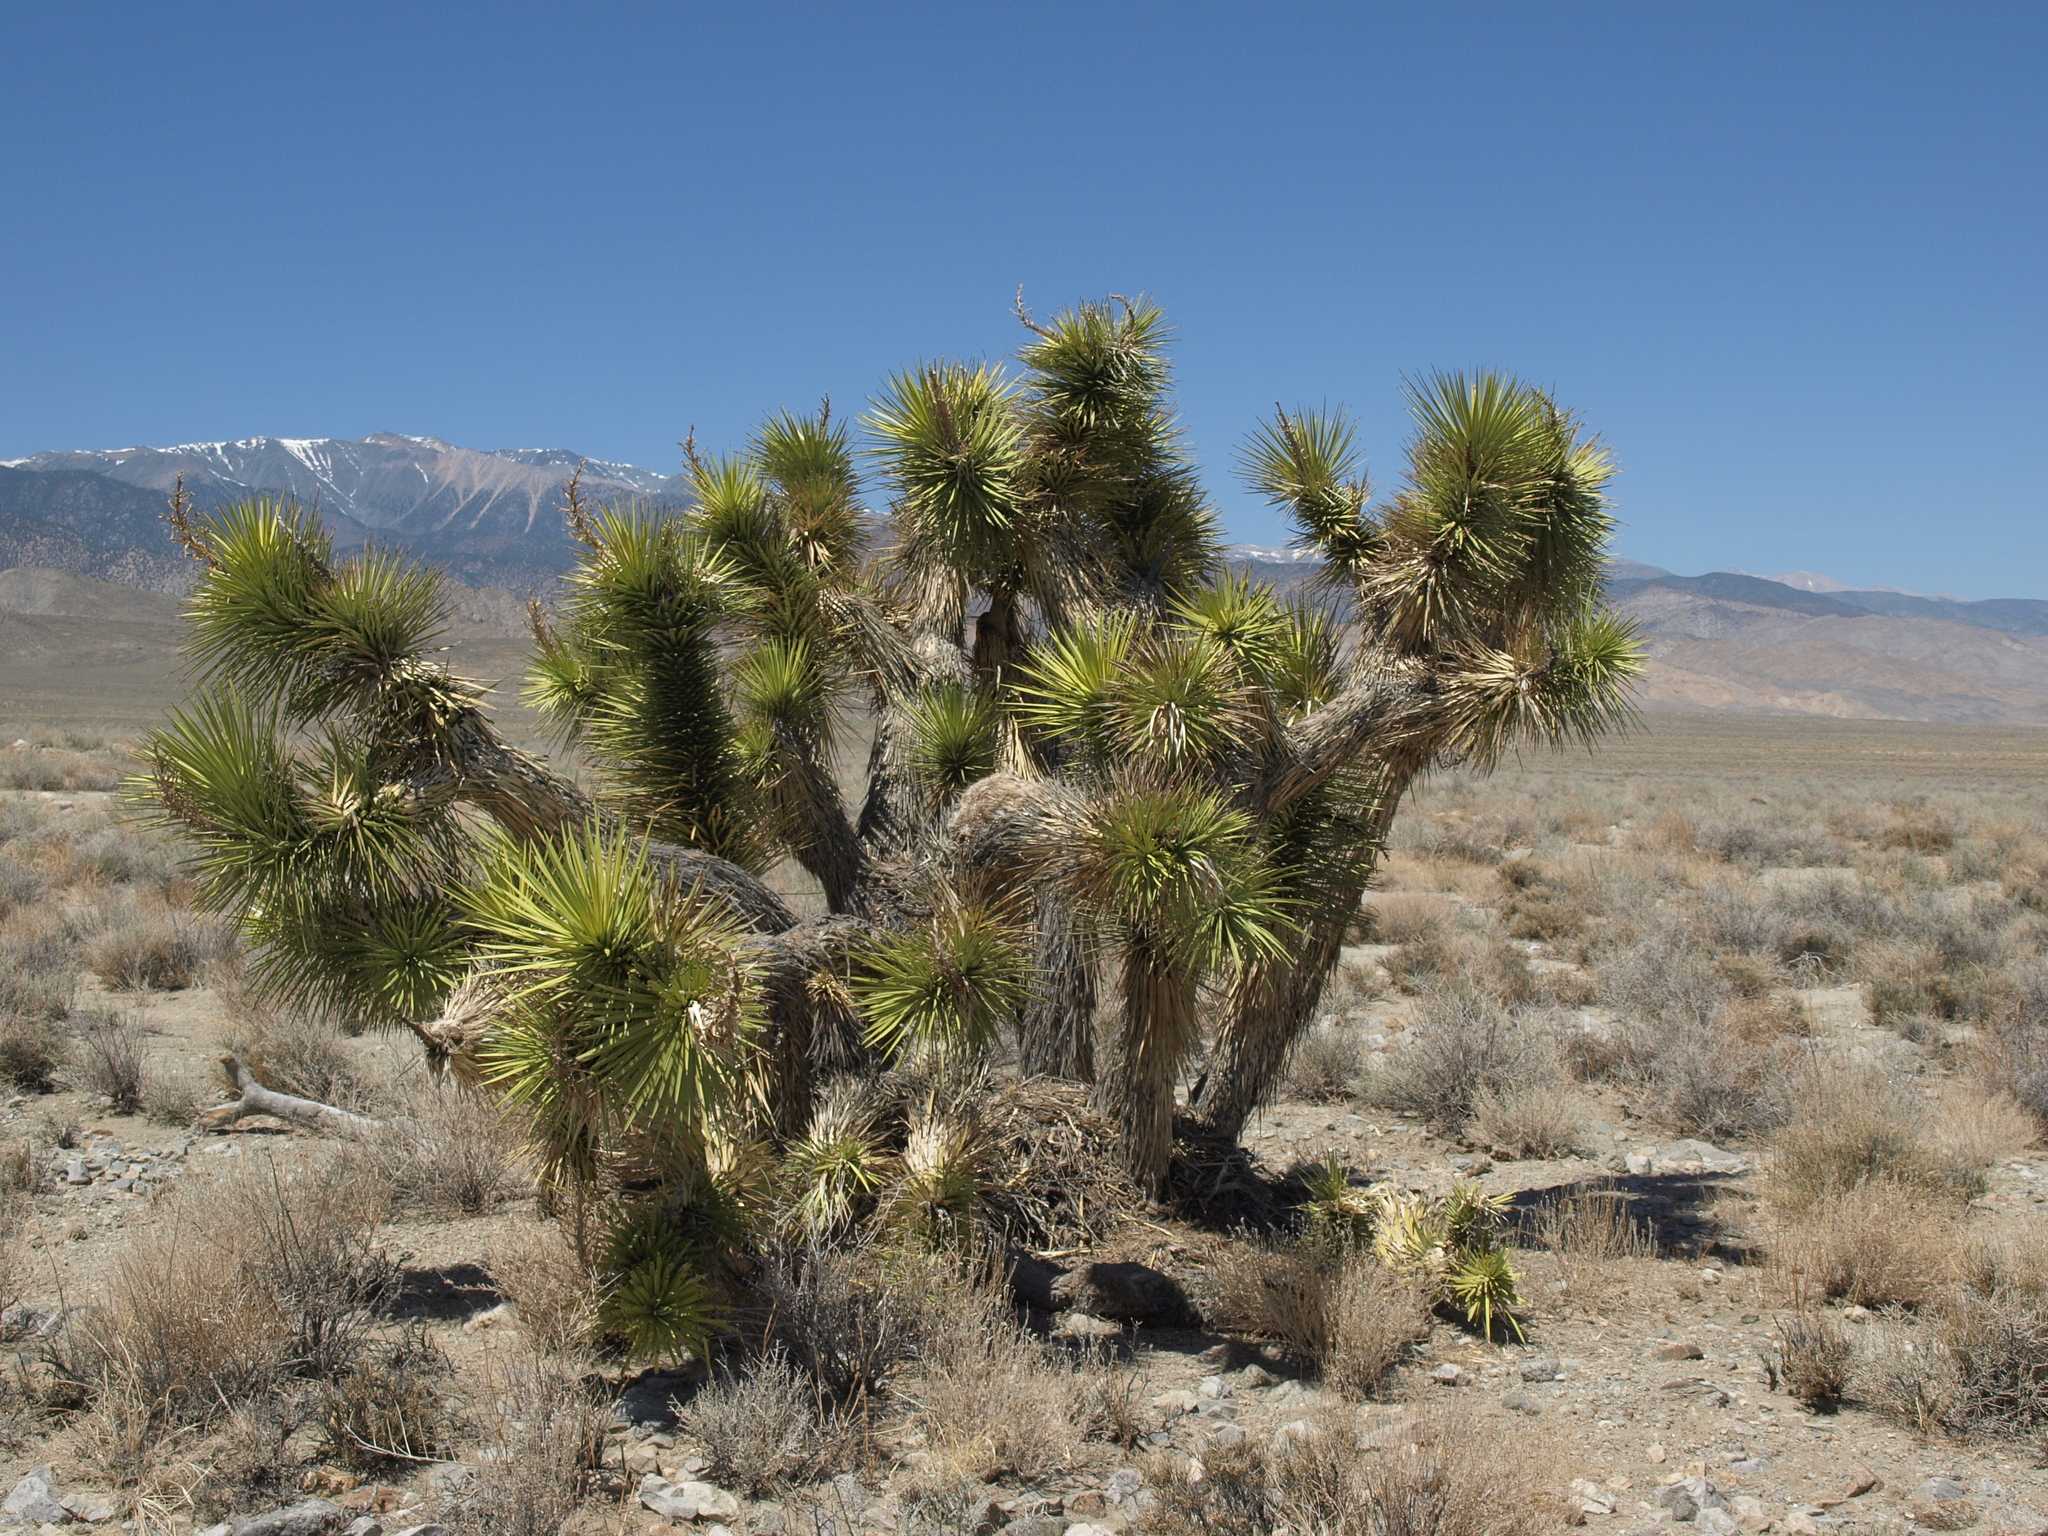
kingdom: Plantae
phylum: Tracheophyta
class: Liliopsida
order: Asparagales
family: Asparagaceae
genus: Yucca
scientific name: Yucca brevifolia
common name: Joshua tree
